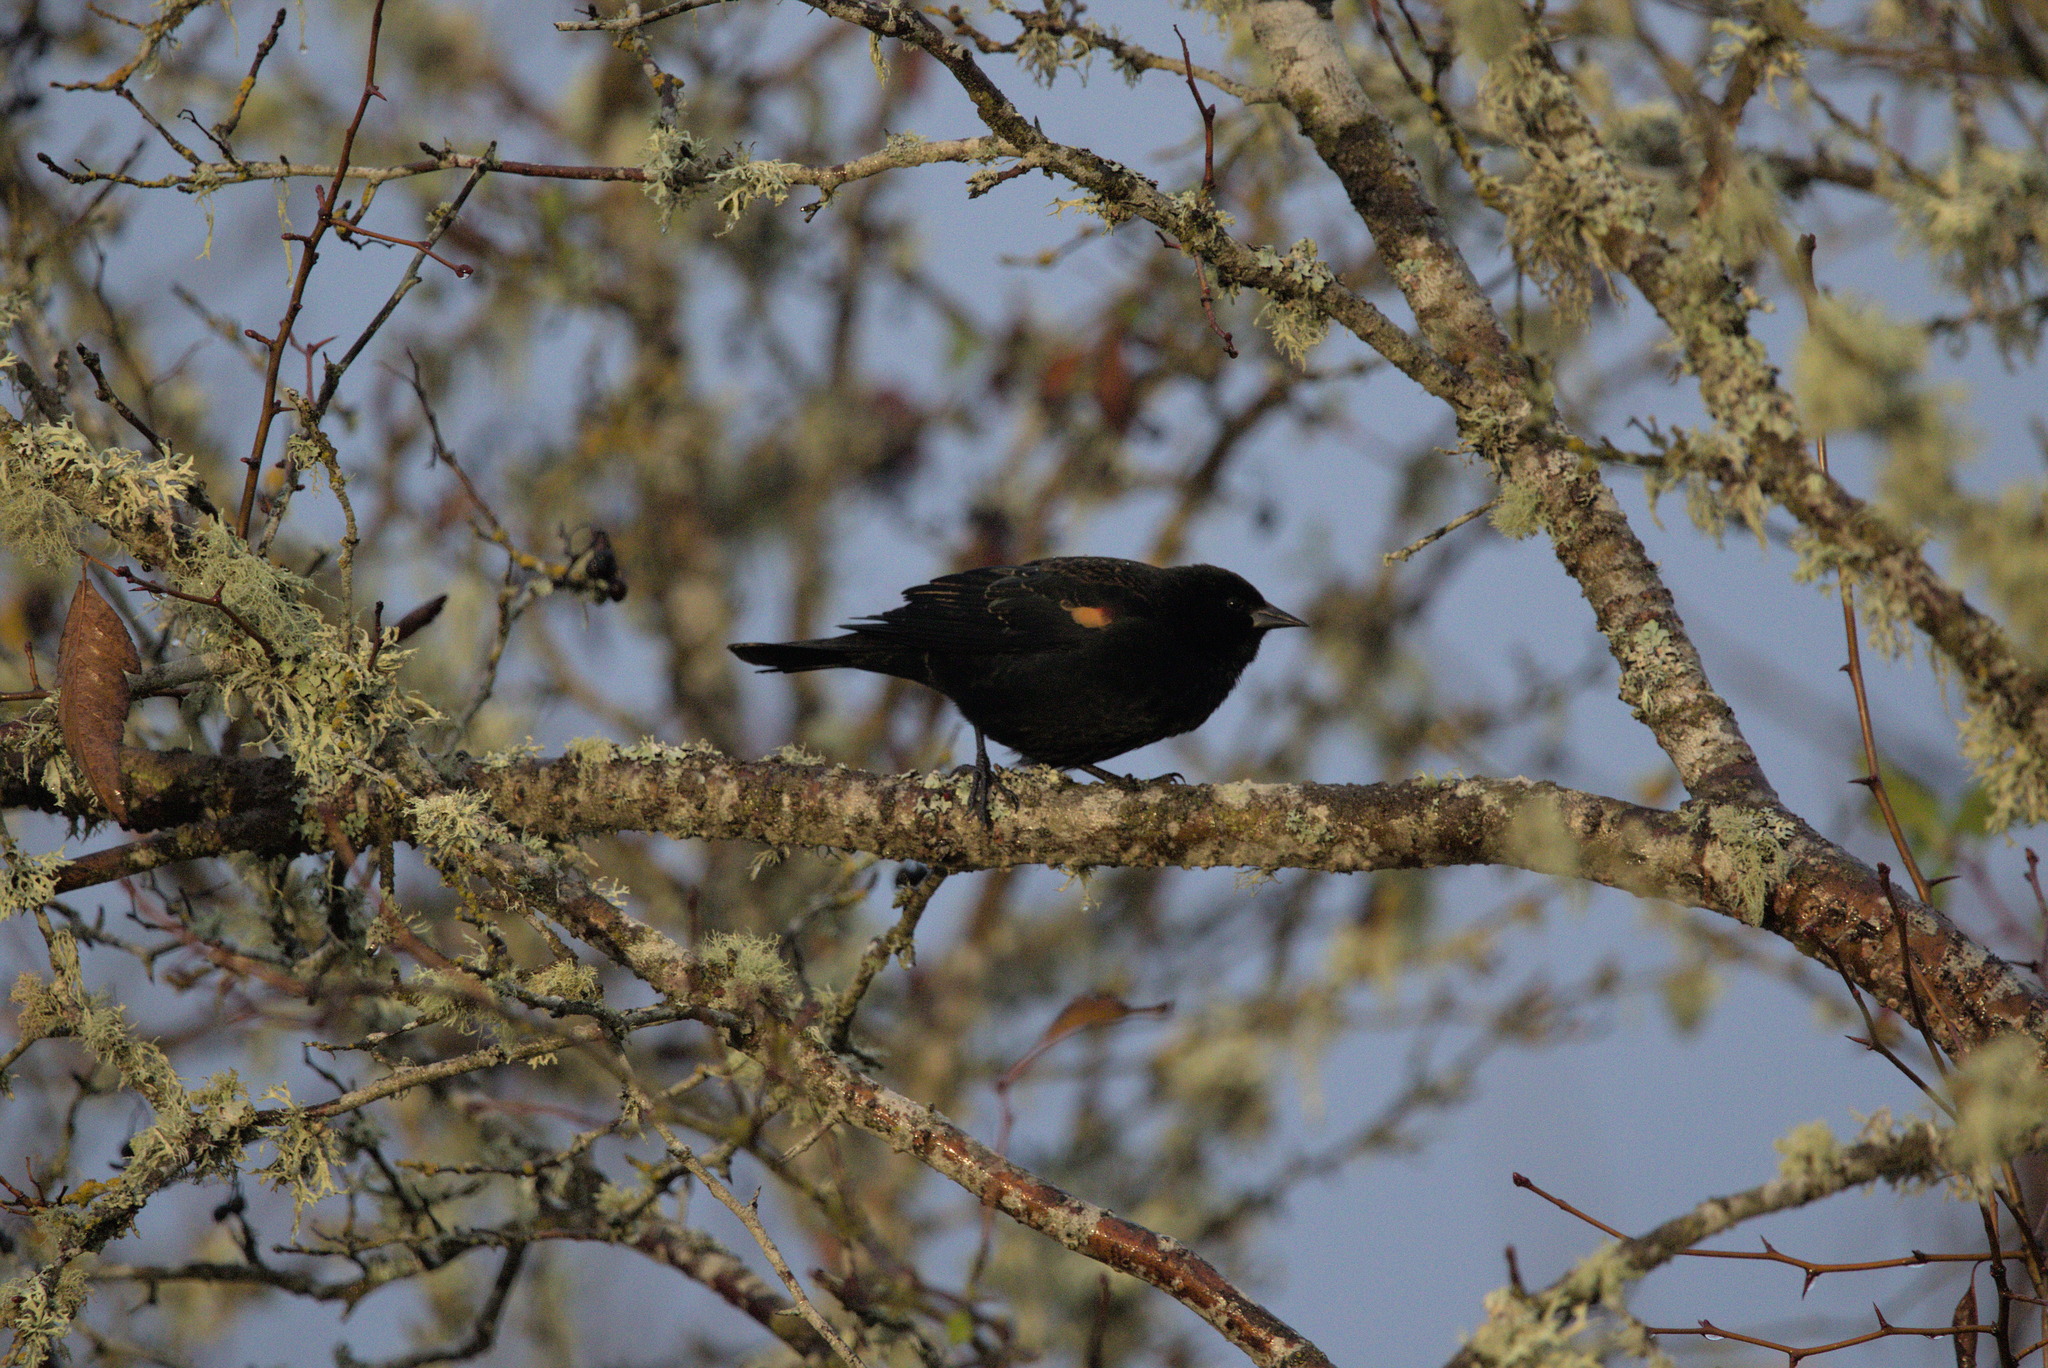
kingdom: Animalia
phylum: Chordata
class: Aves
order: Passeriformes
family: Icteridae
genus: Agelaius
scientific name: Agelaius phoeniceus
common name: Red-winged blackbird
